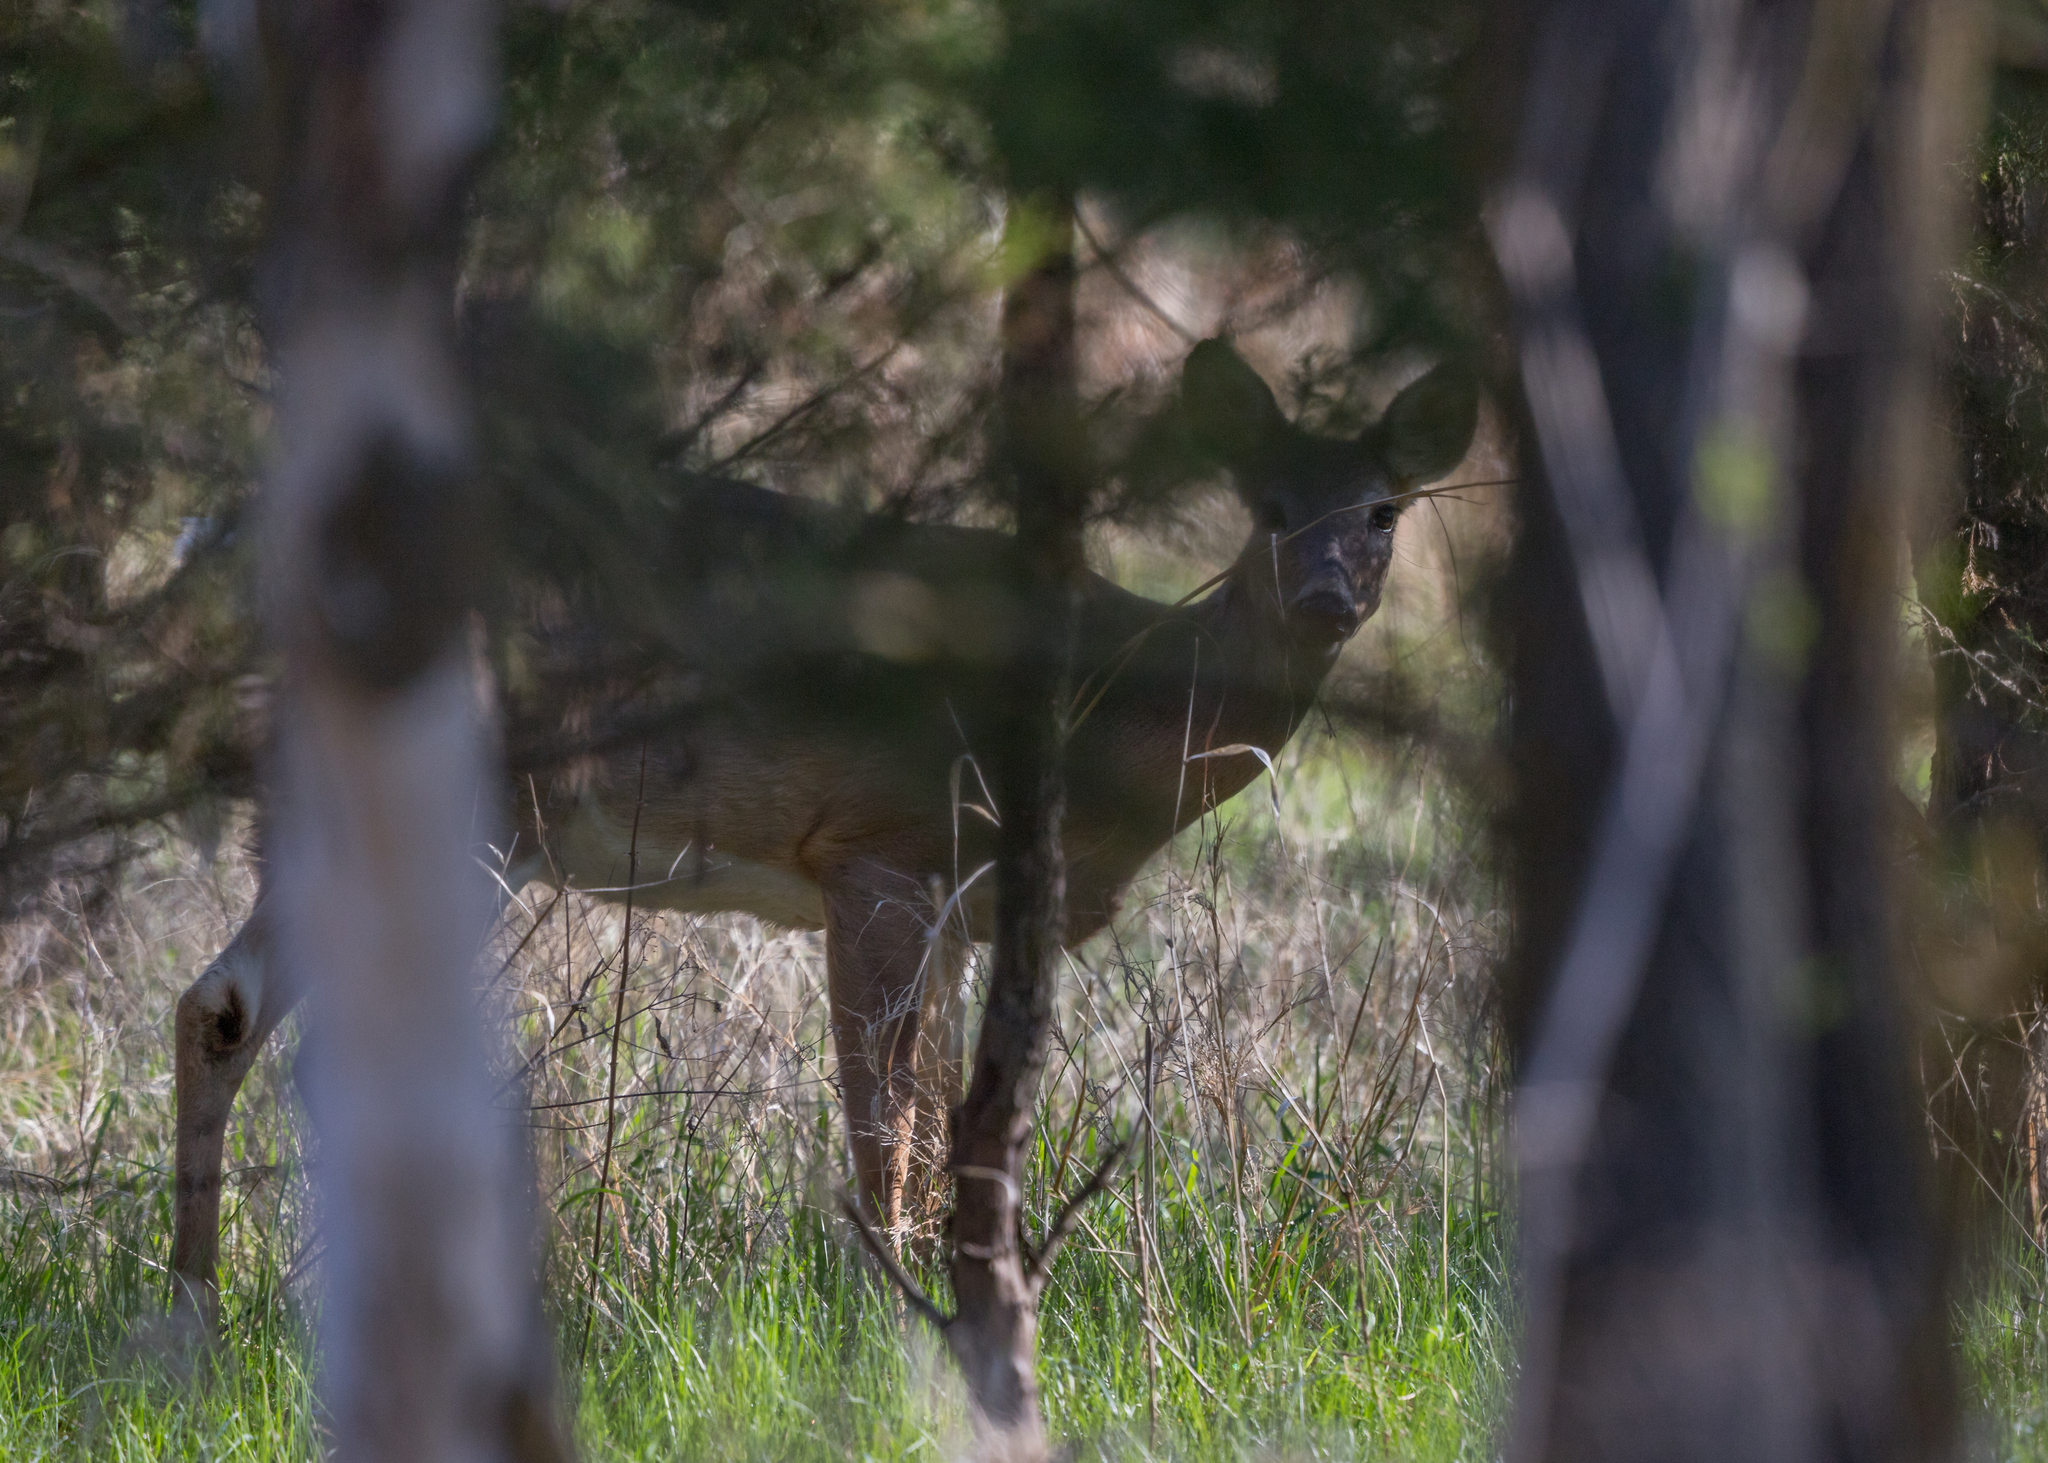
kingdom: Animalia
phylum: Chordata
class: Mammalia
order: Artiodactyla
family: Cervidae
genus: Odocoileus
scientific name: Odocoileus virginianus
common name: White-tailed deer
